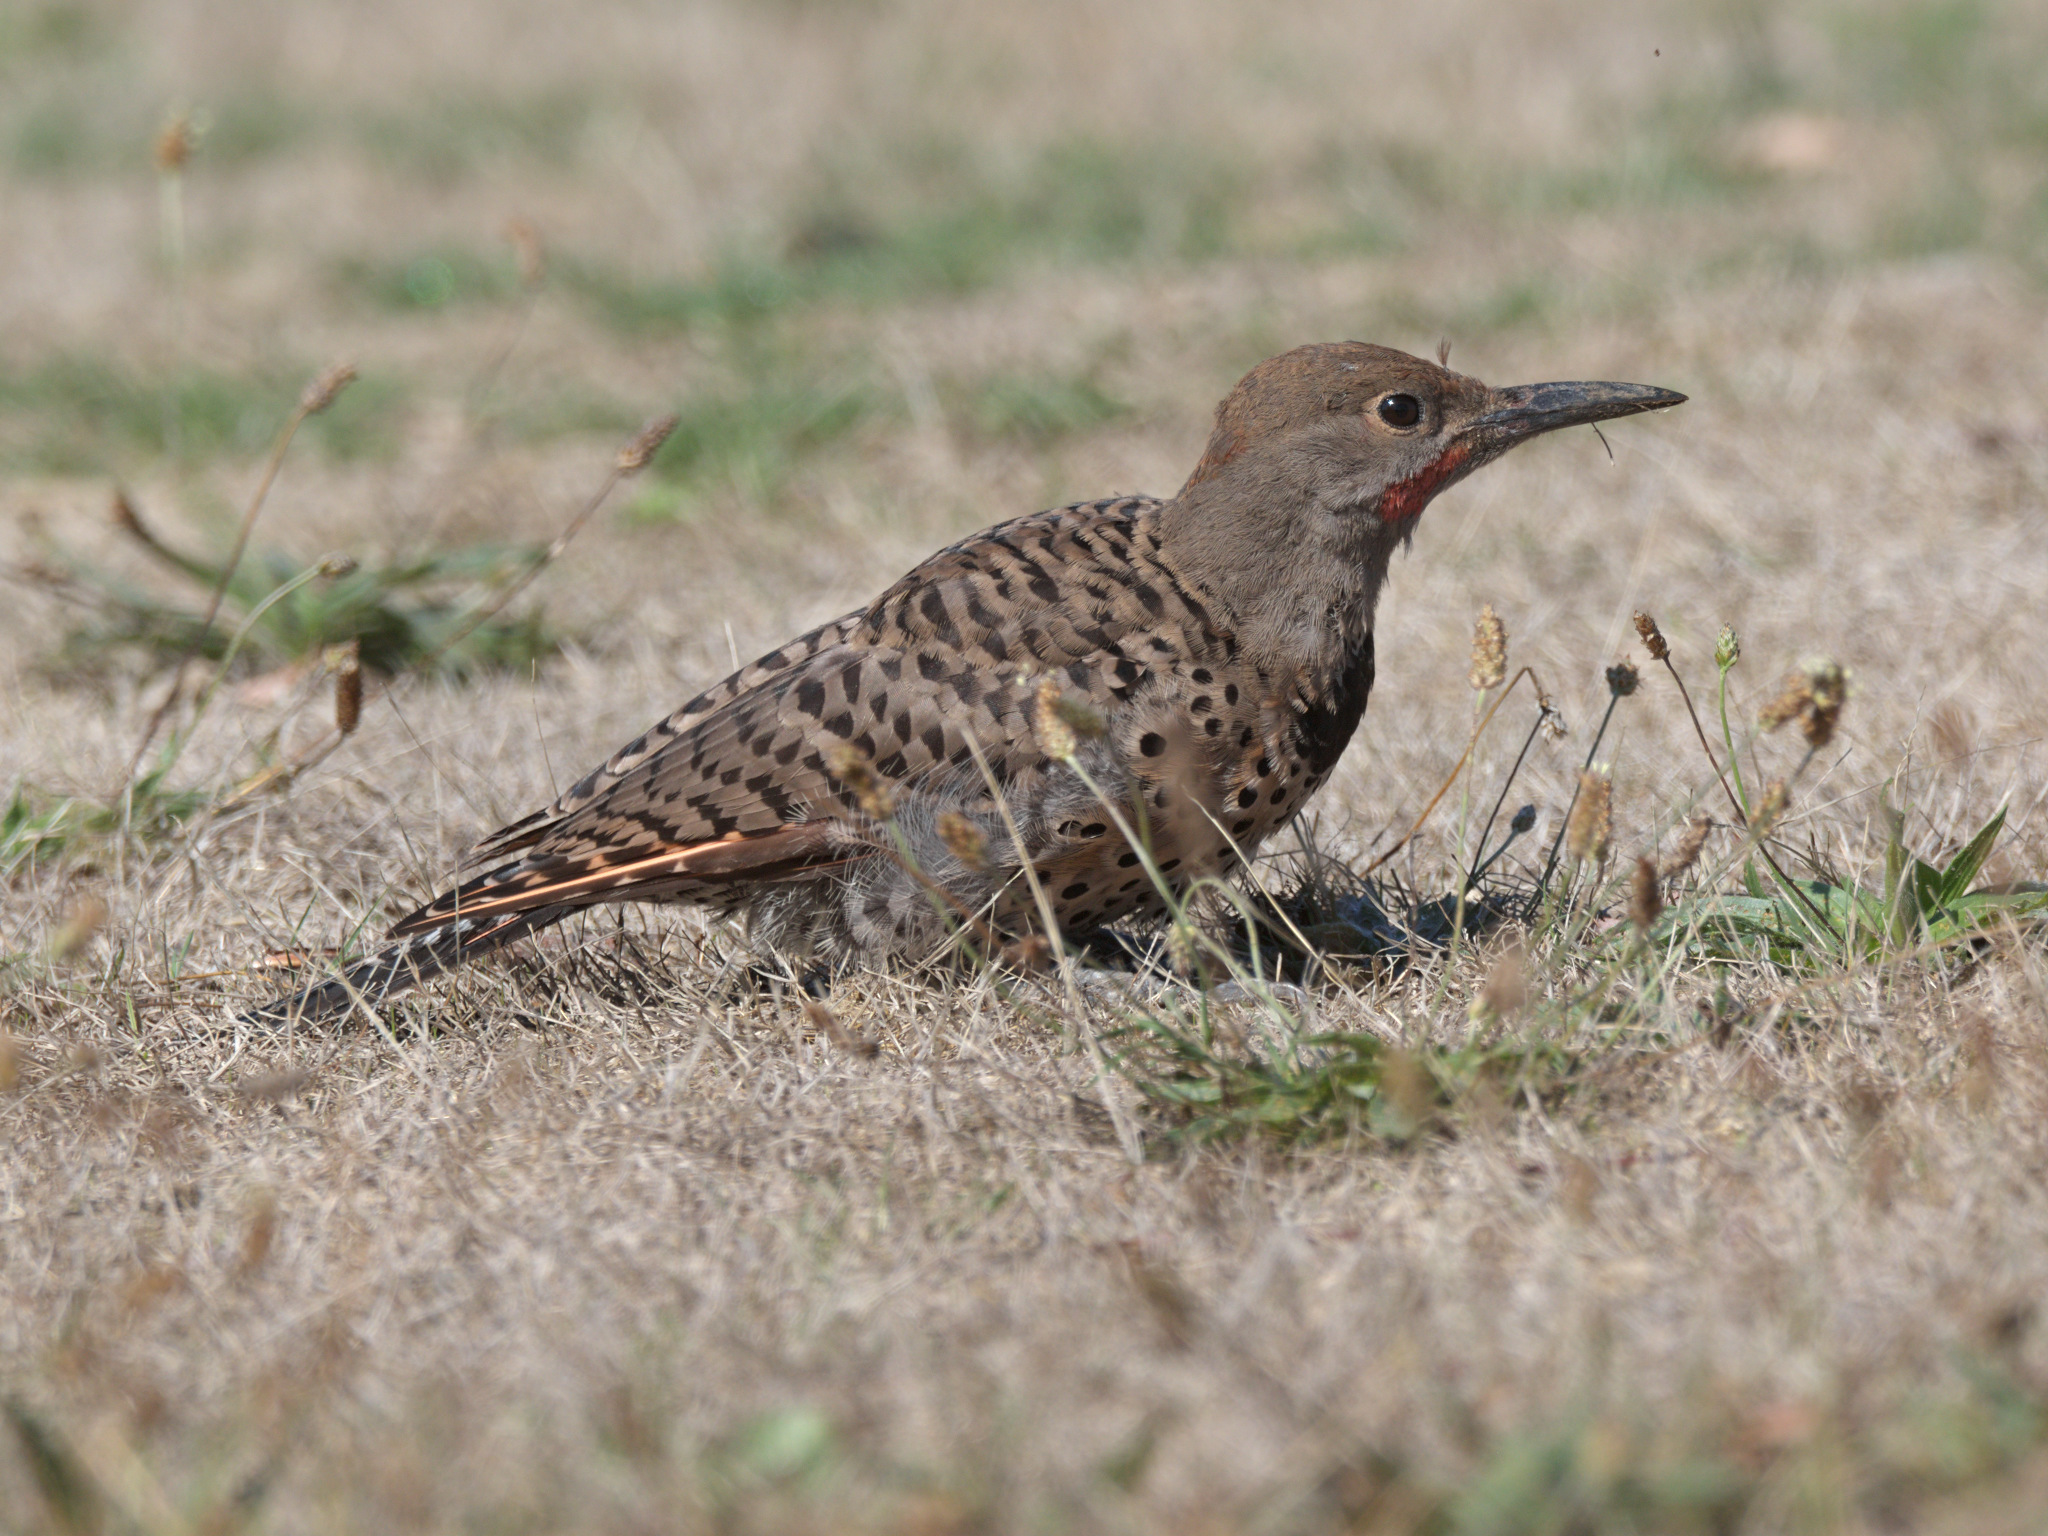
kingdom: Animalia
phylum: Chordata
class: Aves
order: Piciformes
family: Picidae
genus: Colaptes
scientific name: Colaptes
